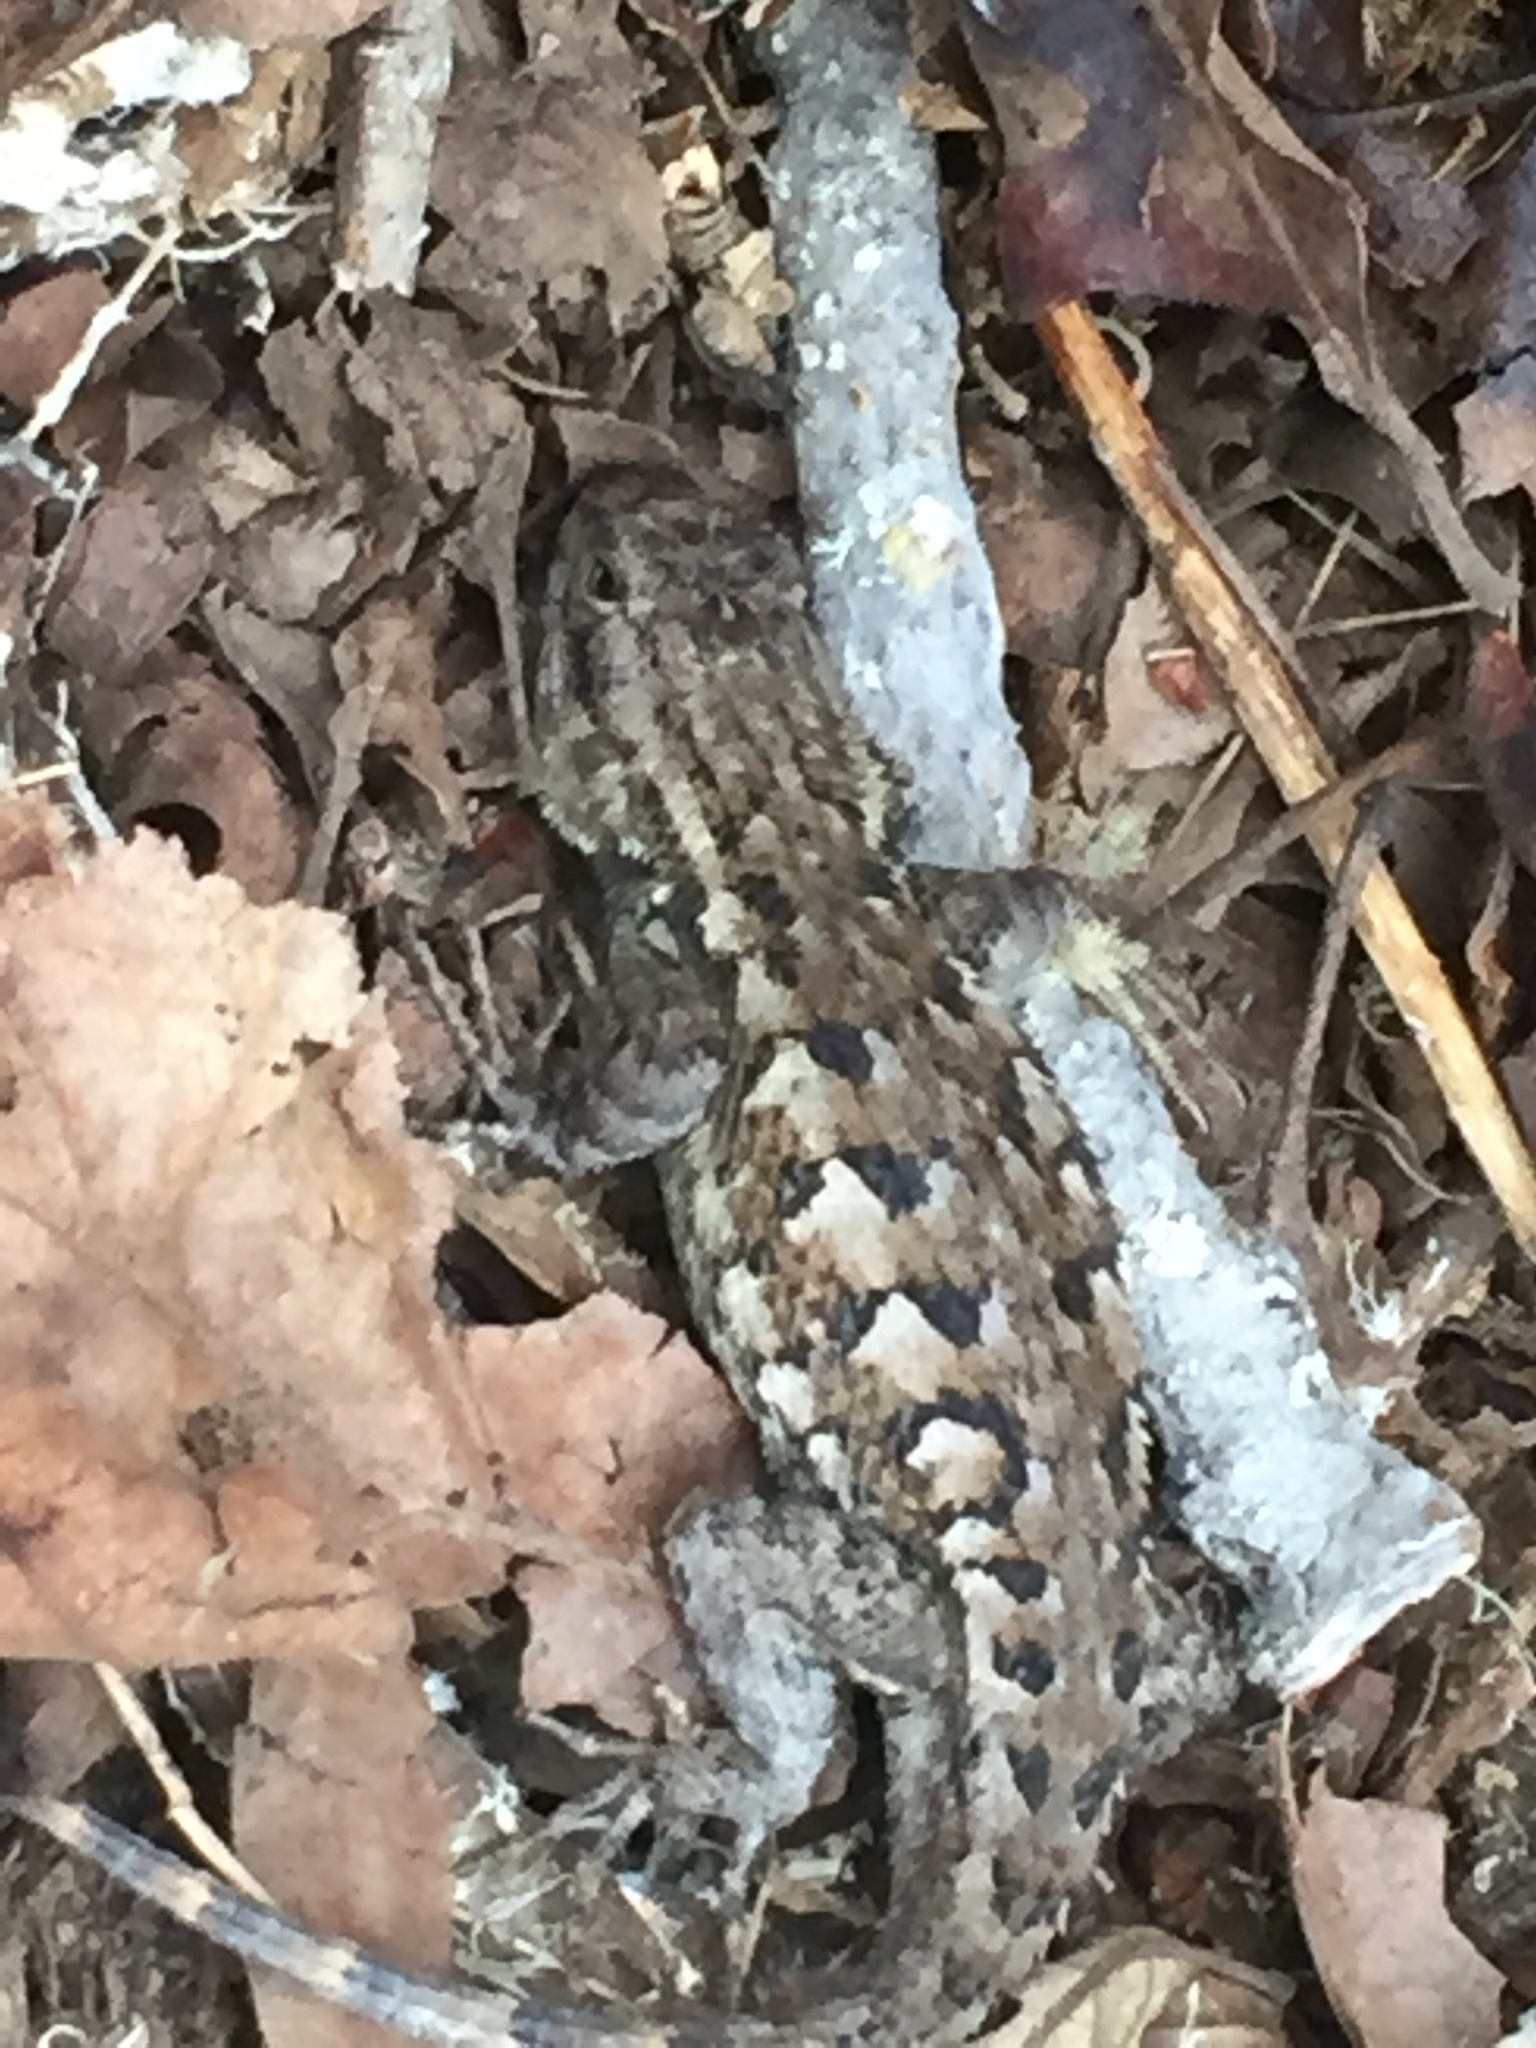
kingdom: Animalia
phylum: Chordata
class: Squamata
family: Phrynosomatidae
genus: Sceloporus
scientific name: Sceloporus occidentalis
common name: Western fence lizard
